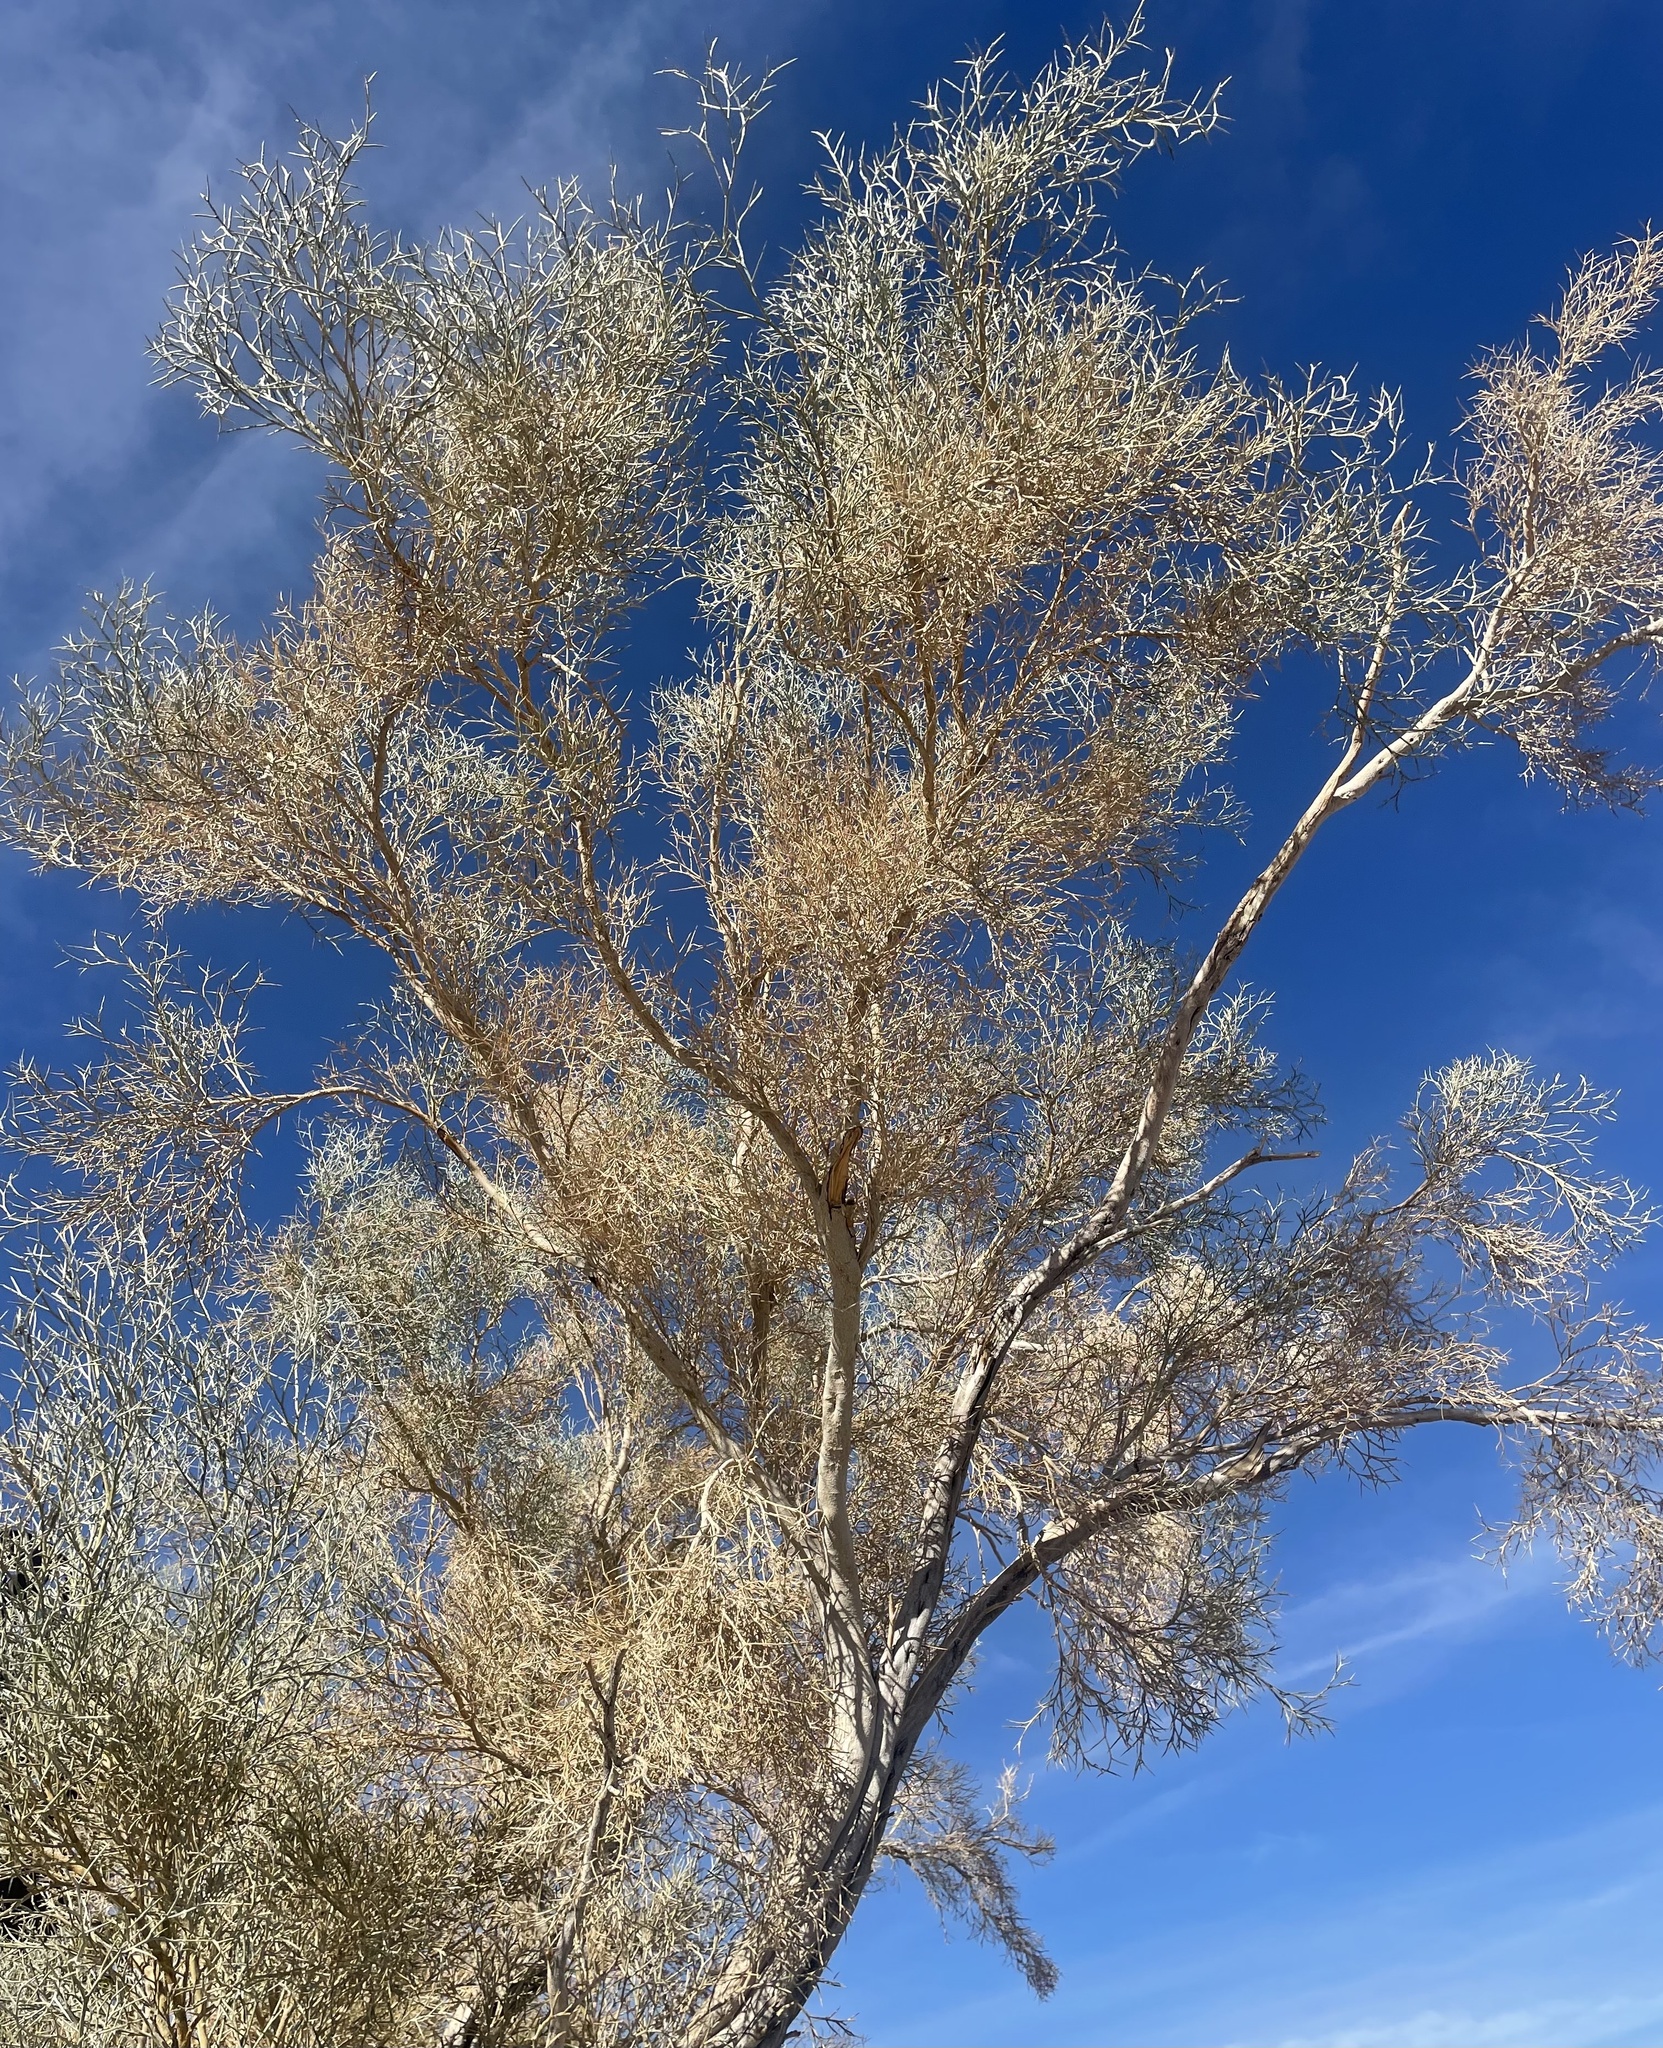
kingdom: Plantae
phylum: Tracheophyta
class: Magnoliopsida
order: Fabales
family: Fabaceae
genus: Psorothamnus
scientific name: Psorothamnus spinosus
